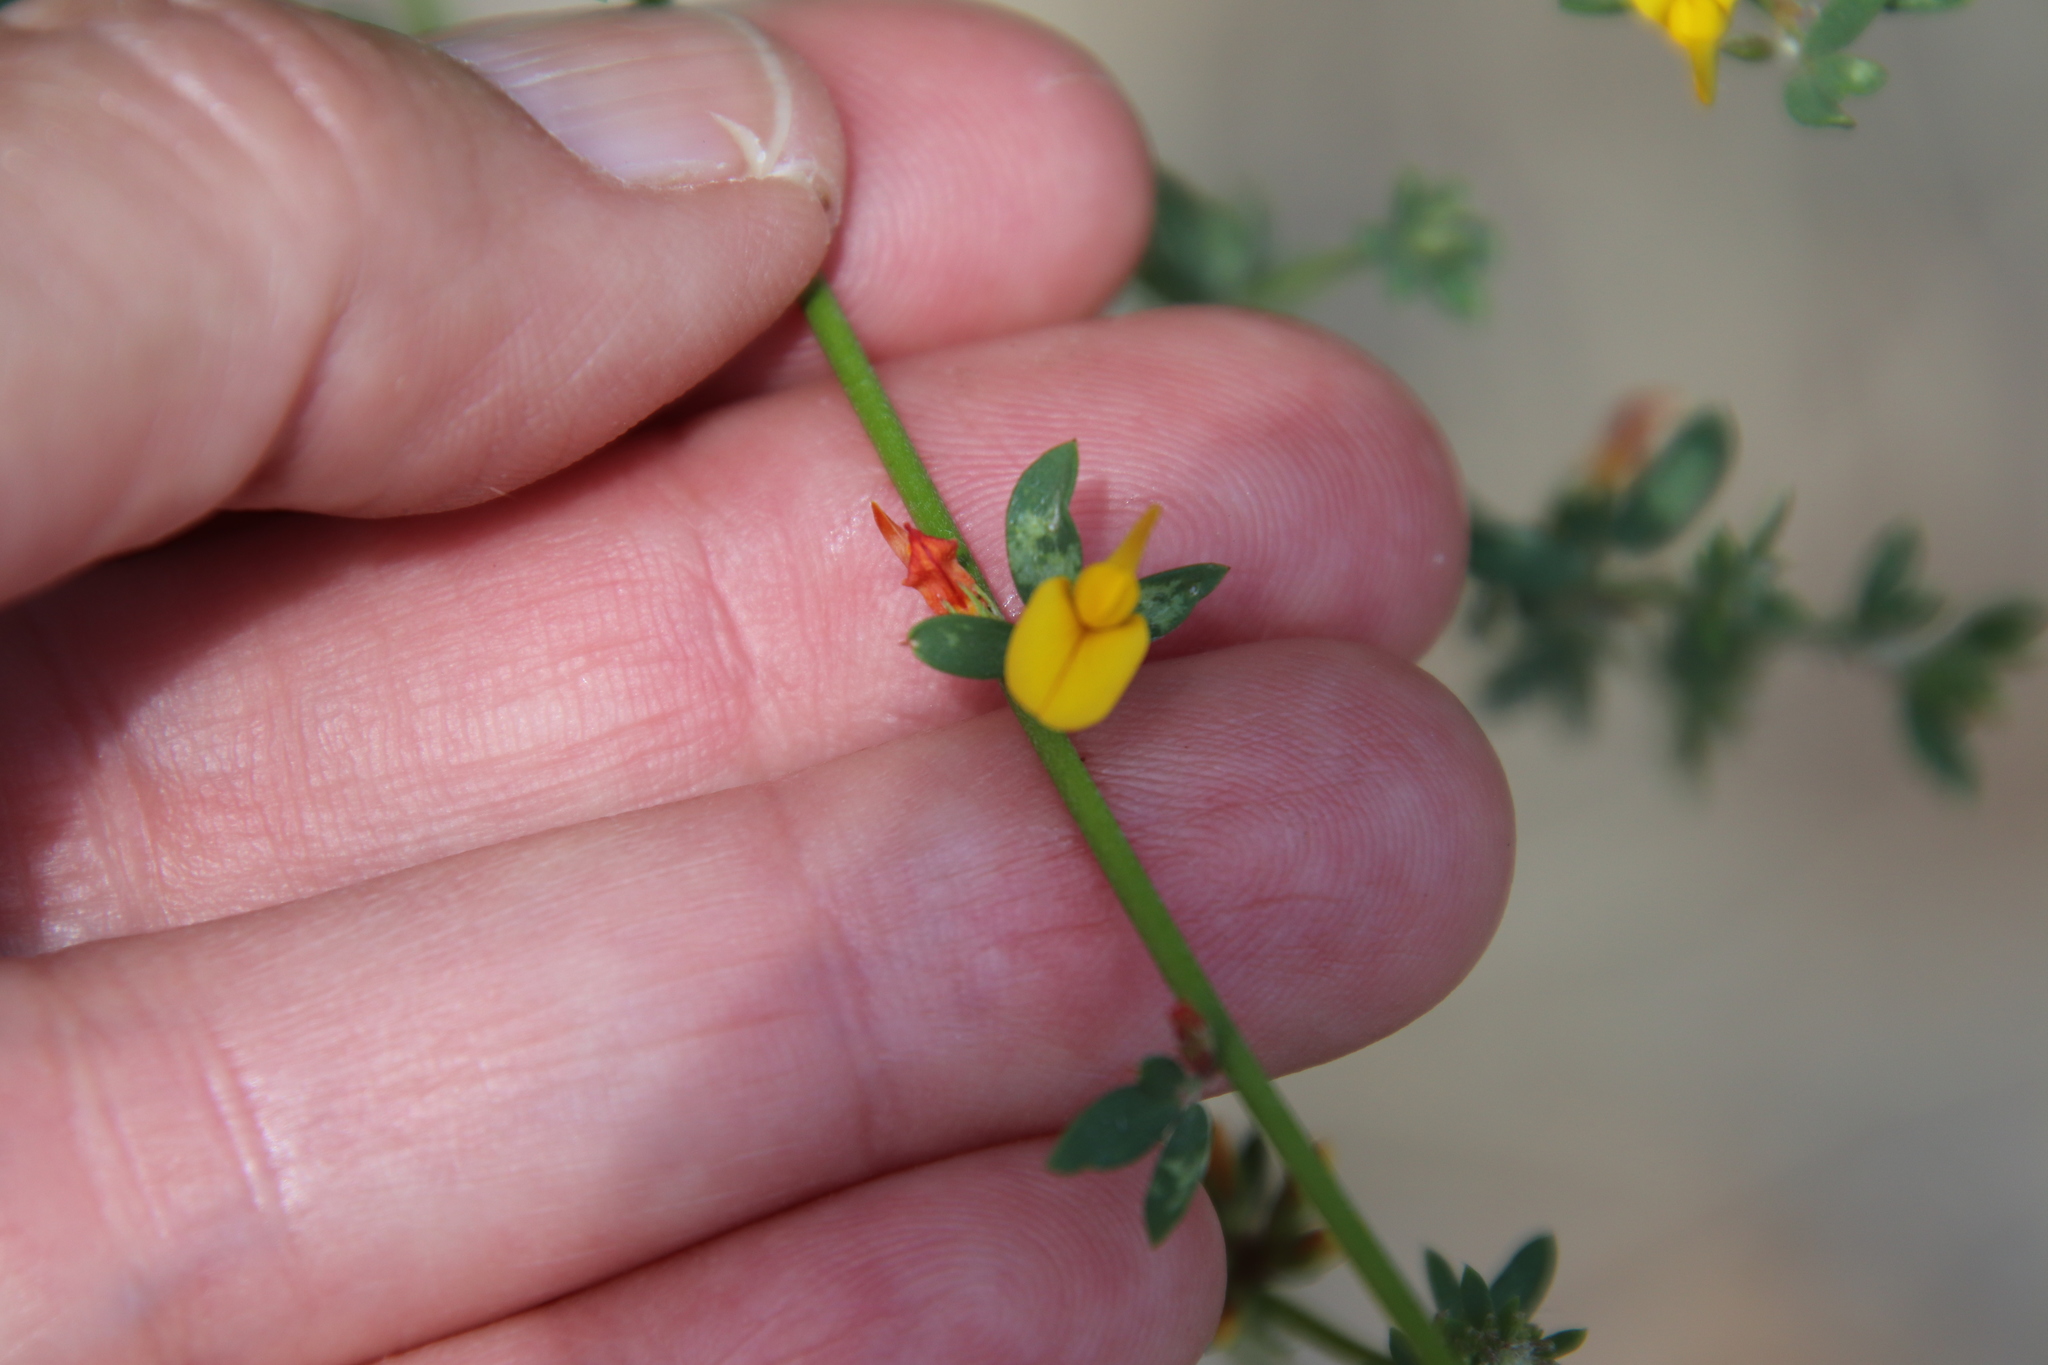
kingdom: Plantae
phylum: Tracheophyta
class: Magnoliopsida
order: Fabales
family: Fabaceae
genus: Acmispon
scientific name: Acmispon glaber
